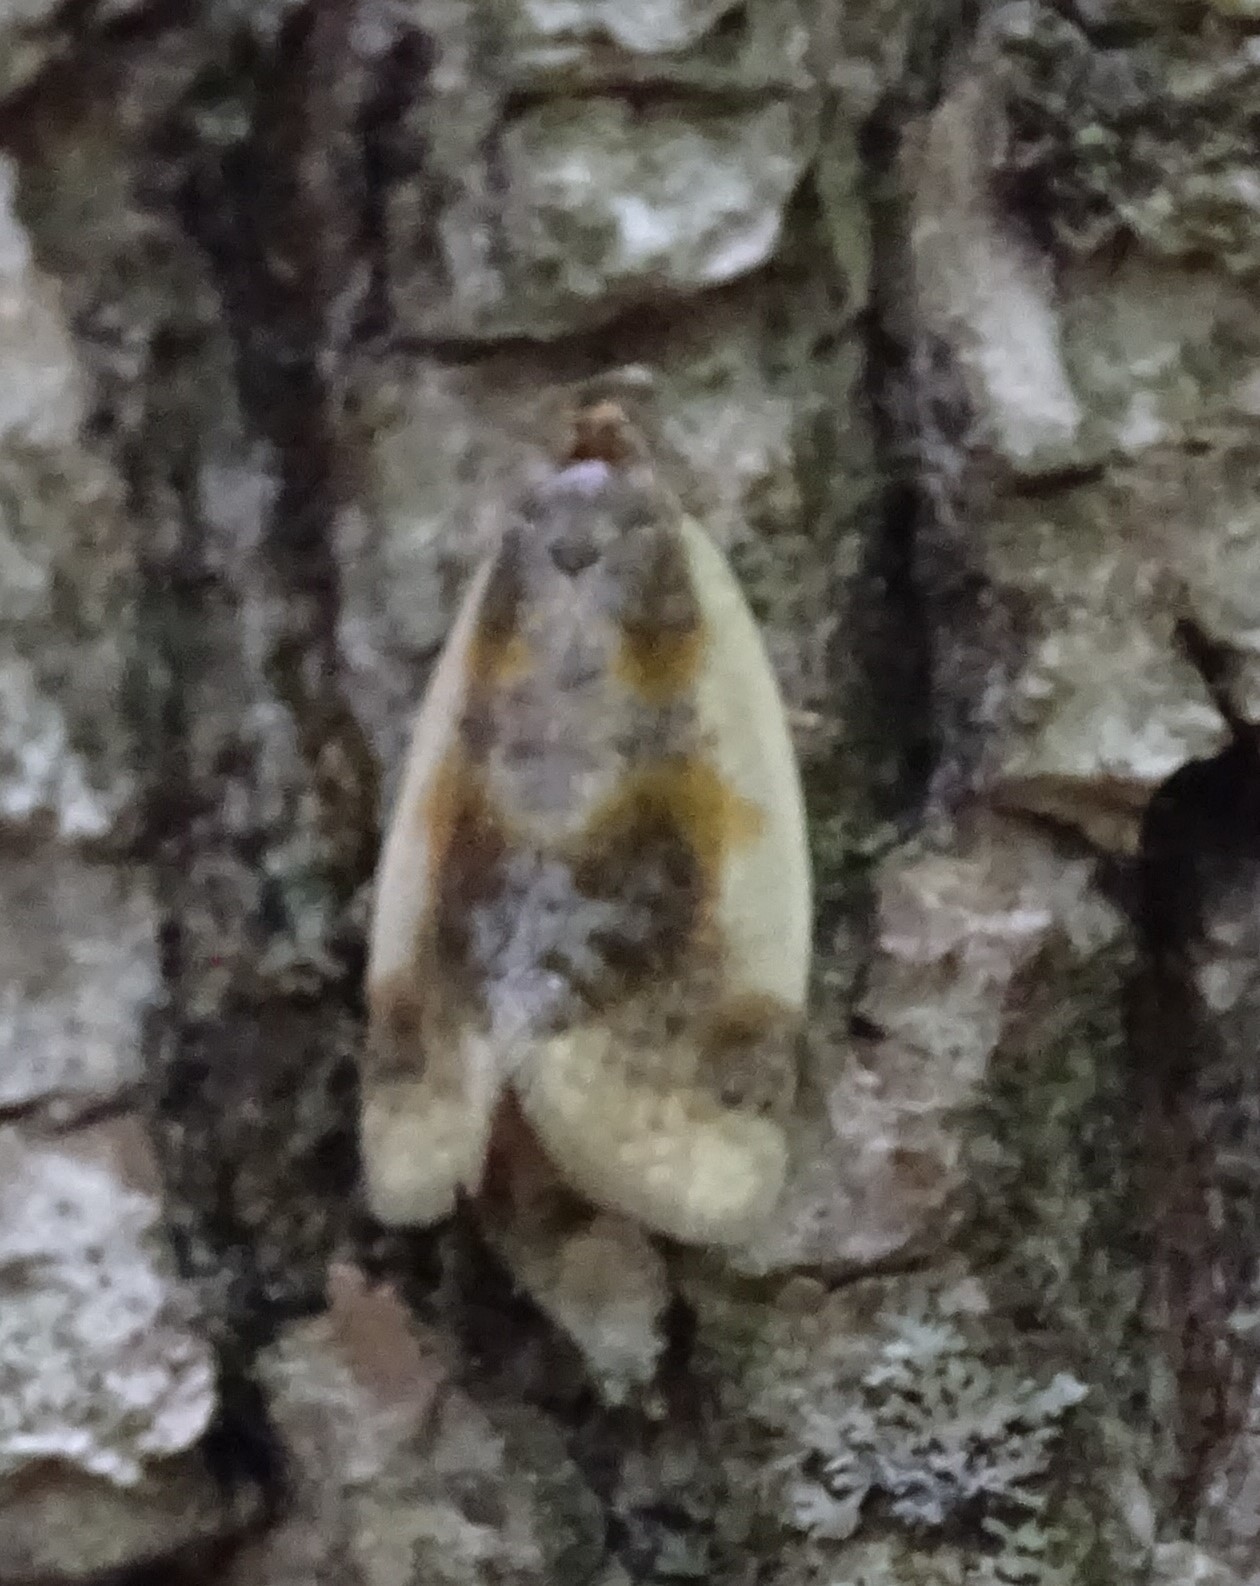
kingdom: Animalia
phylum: Arthropoda
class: Insecta
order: Lepidoptera
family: Tortricidae
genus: Clepsis
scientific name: Clepsis melaleucanus
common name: American apple tortrix
